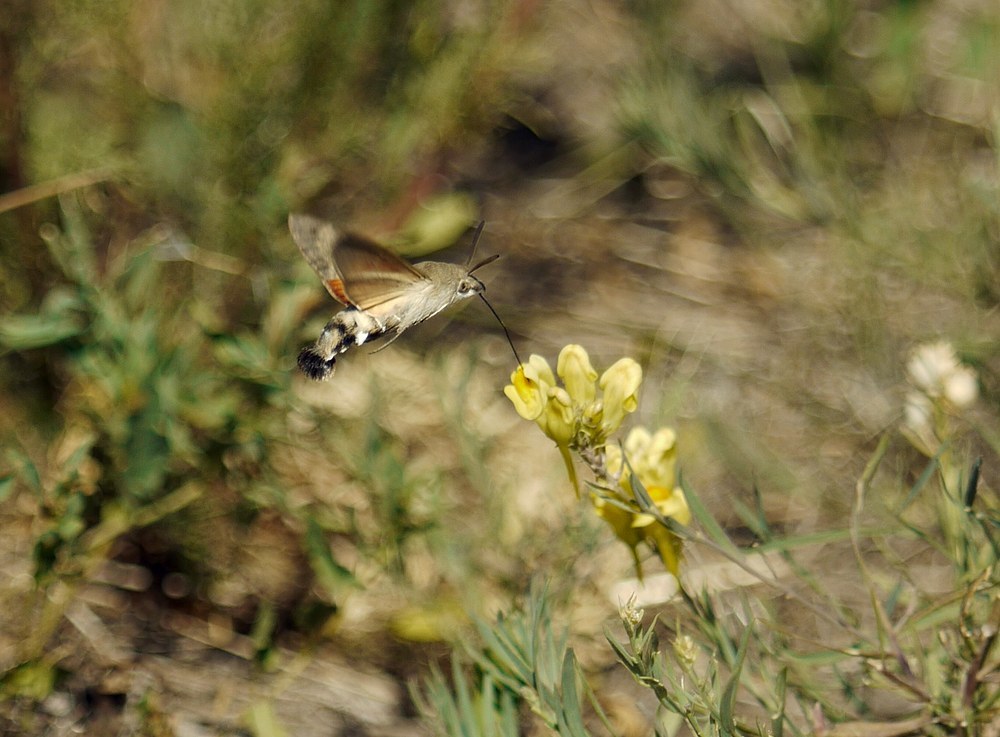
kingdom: Animalia
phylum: Arthropoda
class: Insecta
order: Lepidoptera
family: Sphingidae
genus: Macroglossum
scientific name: Macroglossum stellatarum
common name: Humming-bird hawk-moth
